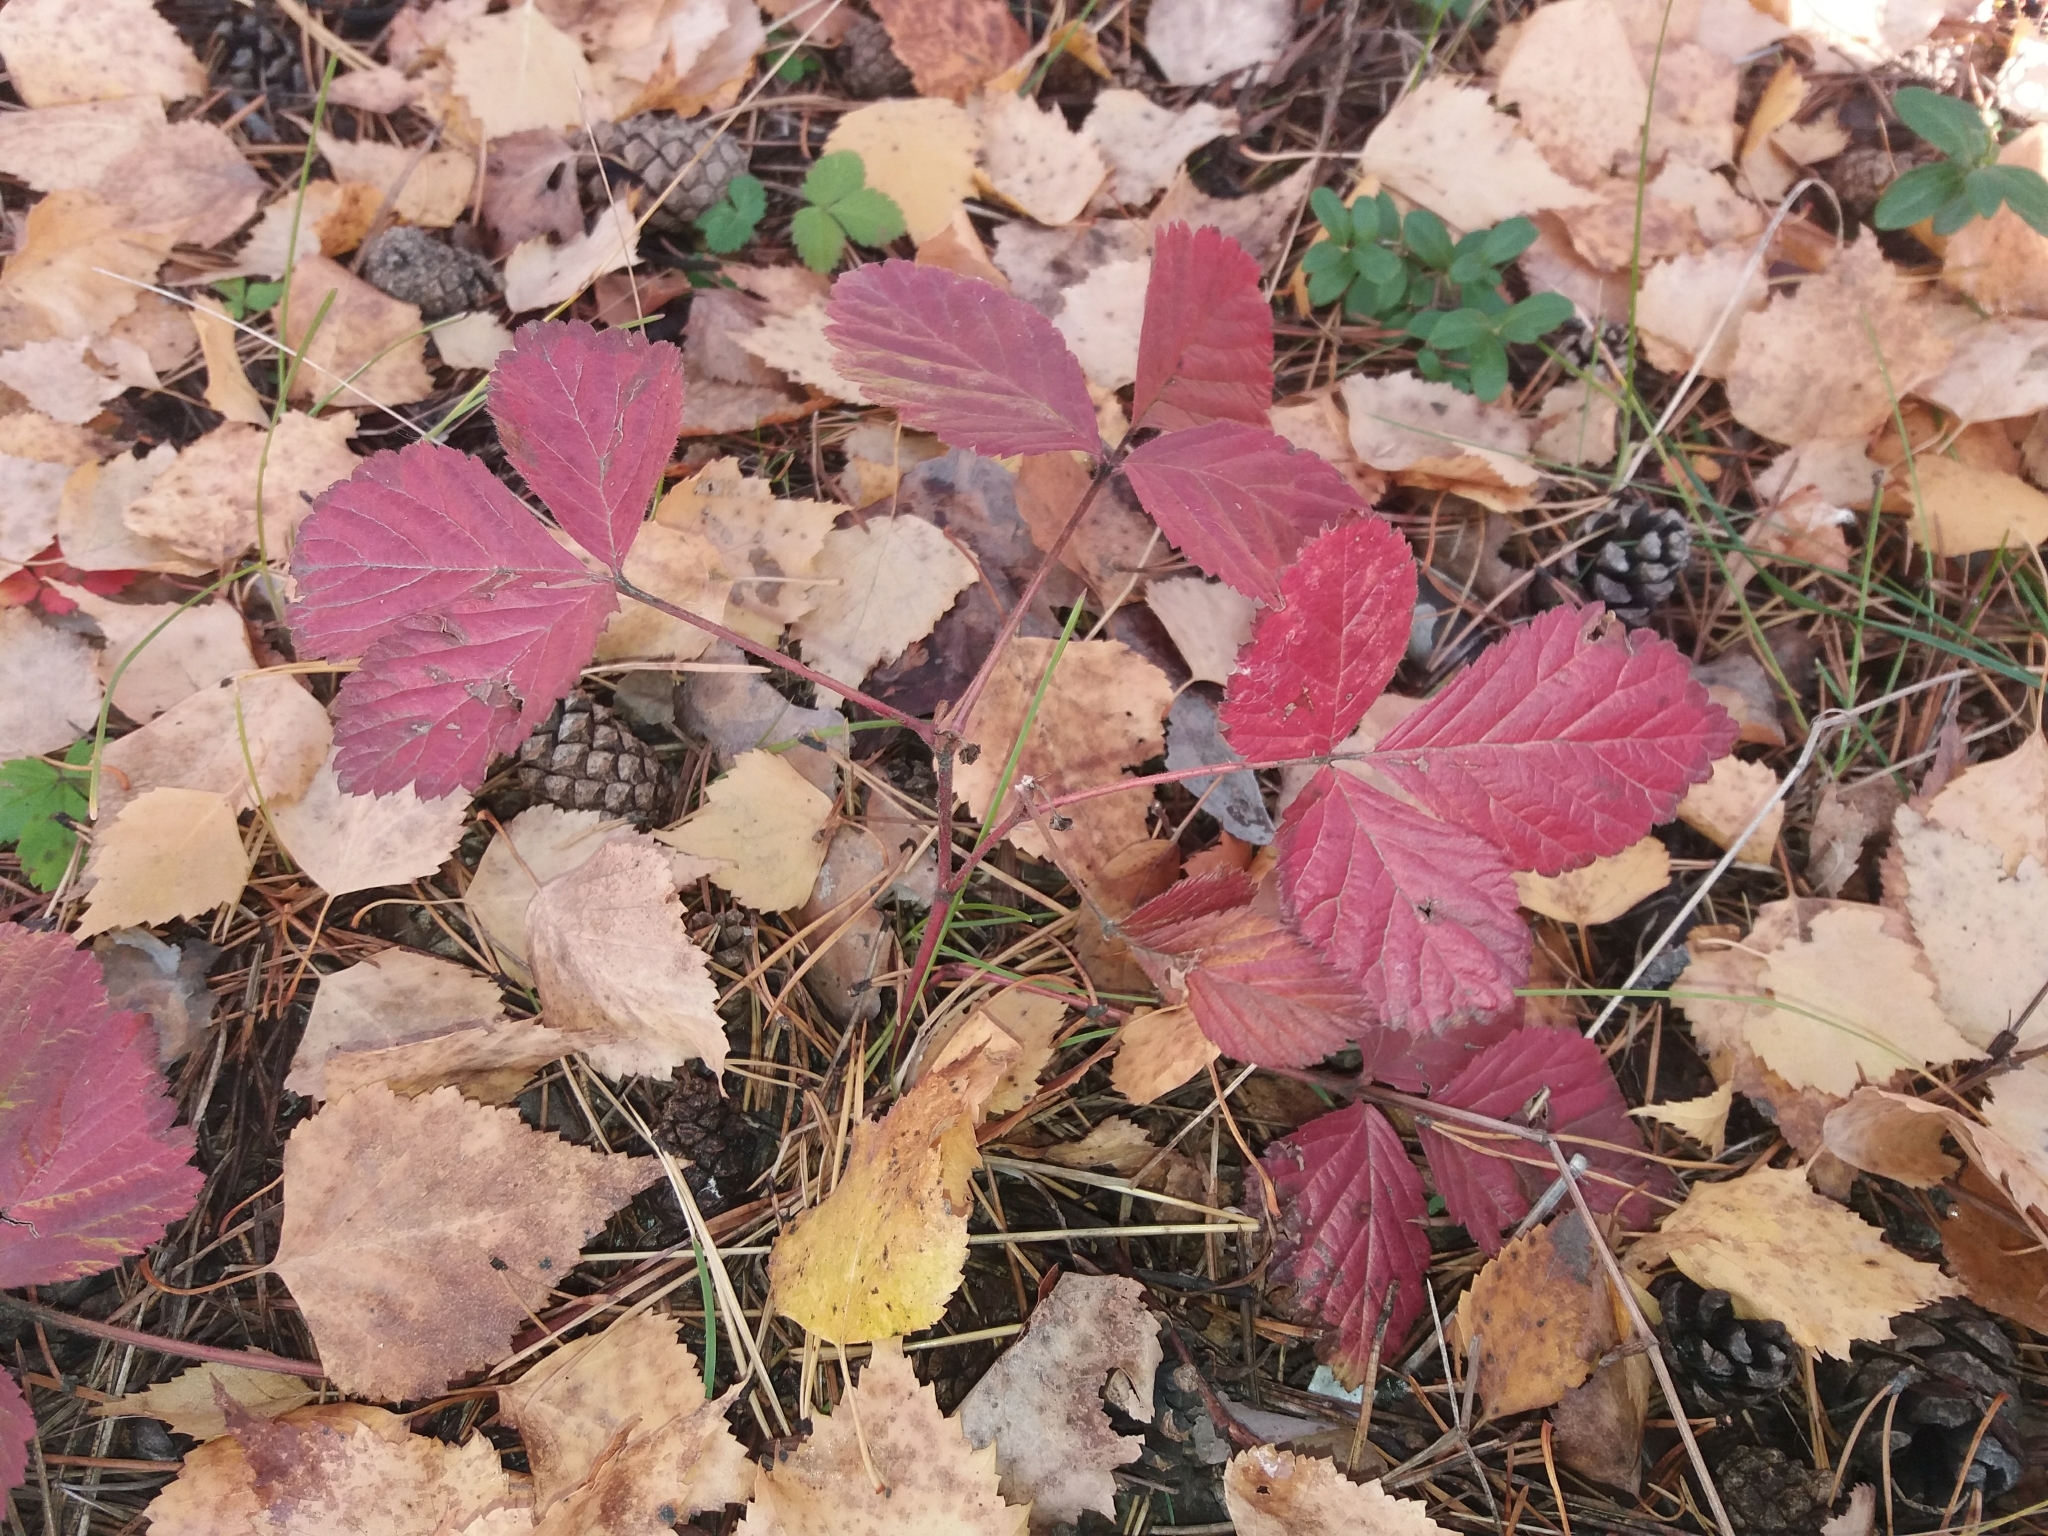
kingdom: Plantae
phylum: Tracheophyta
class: Magnoliopsida
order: Rosales
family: Rosaceae
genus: Rubus
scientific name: Rubus saxatilis
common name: Stone bramble
